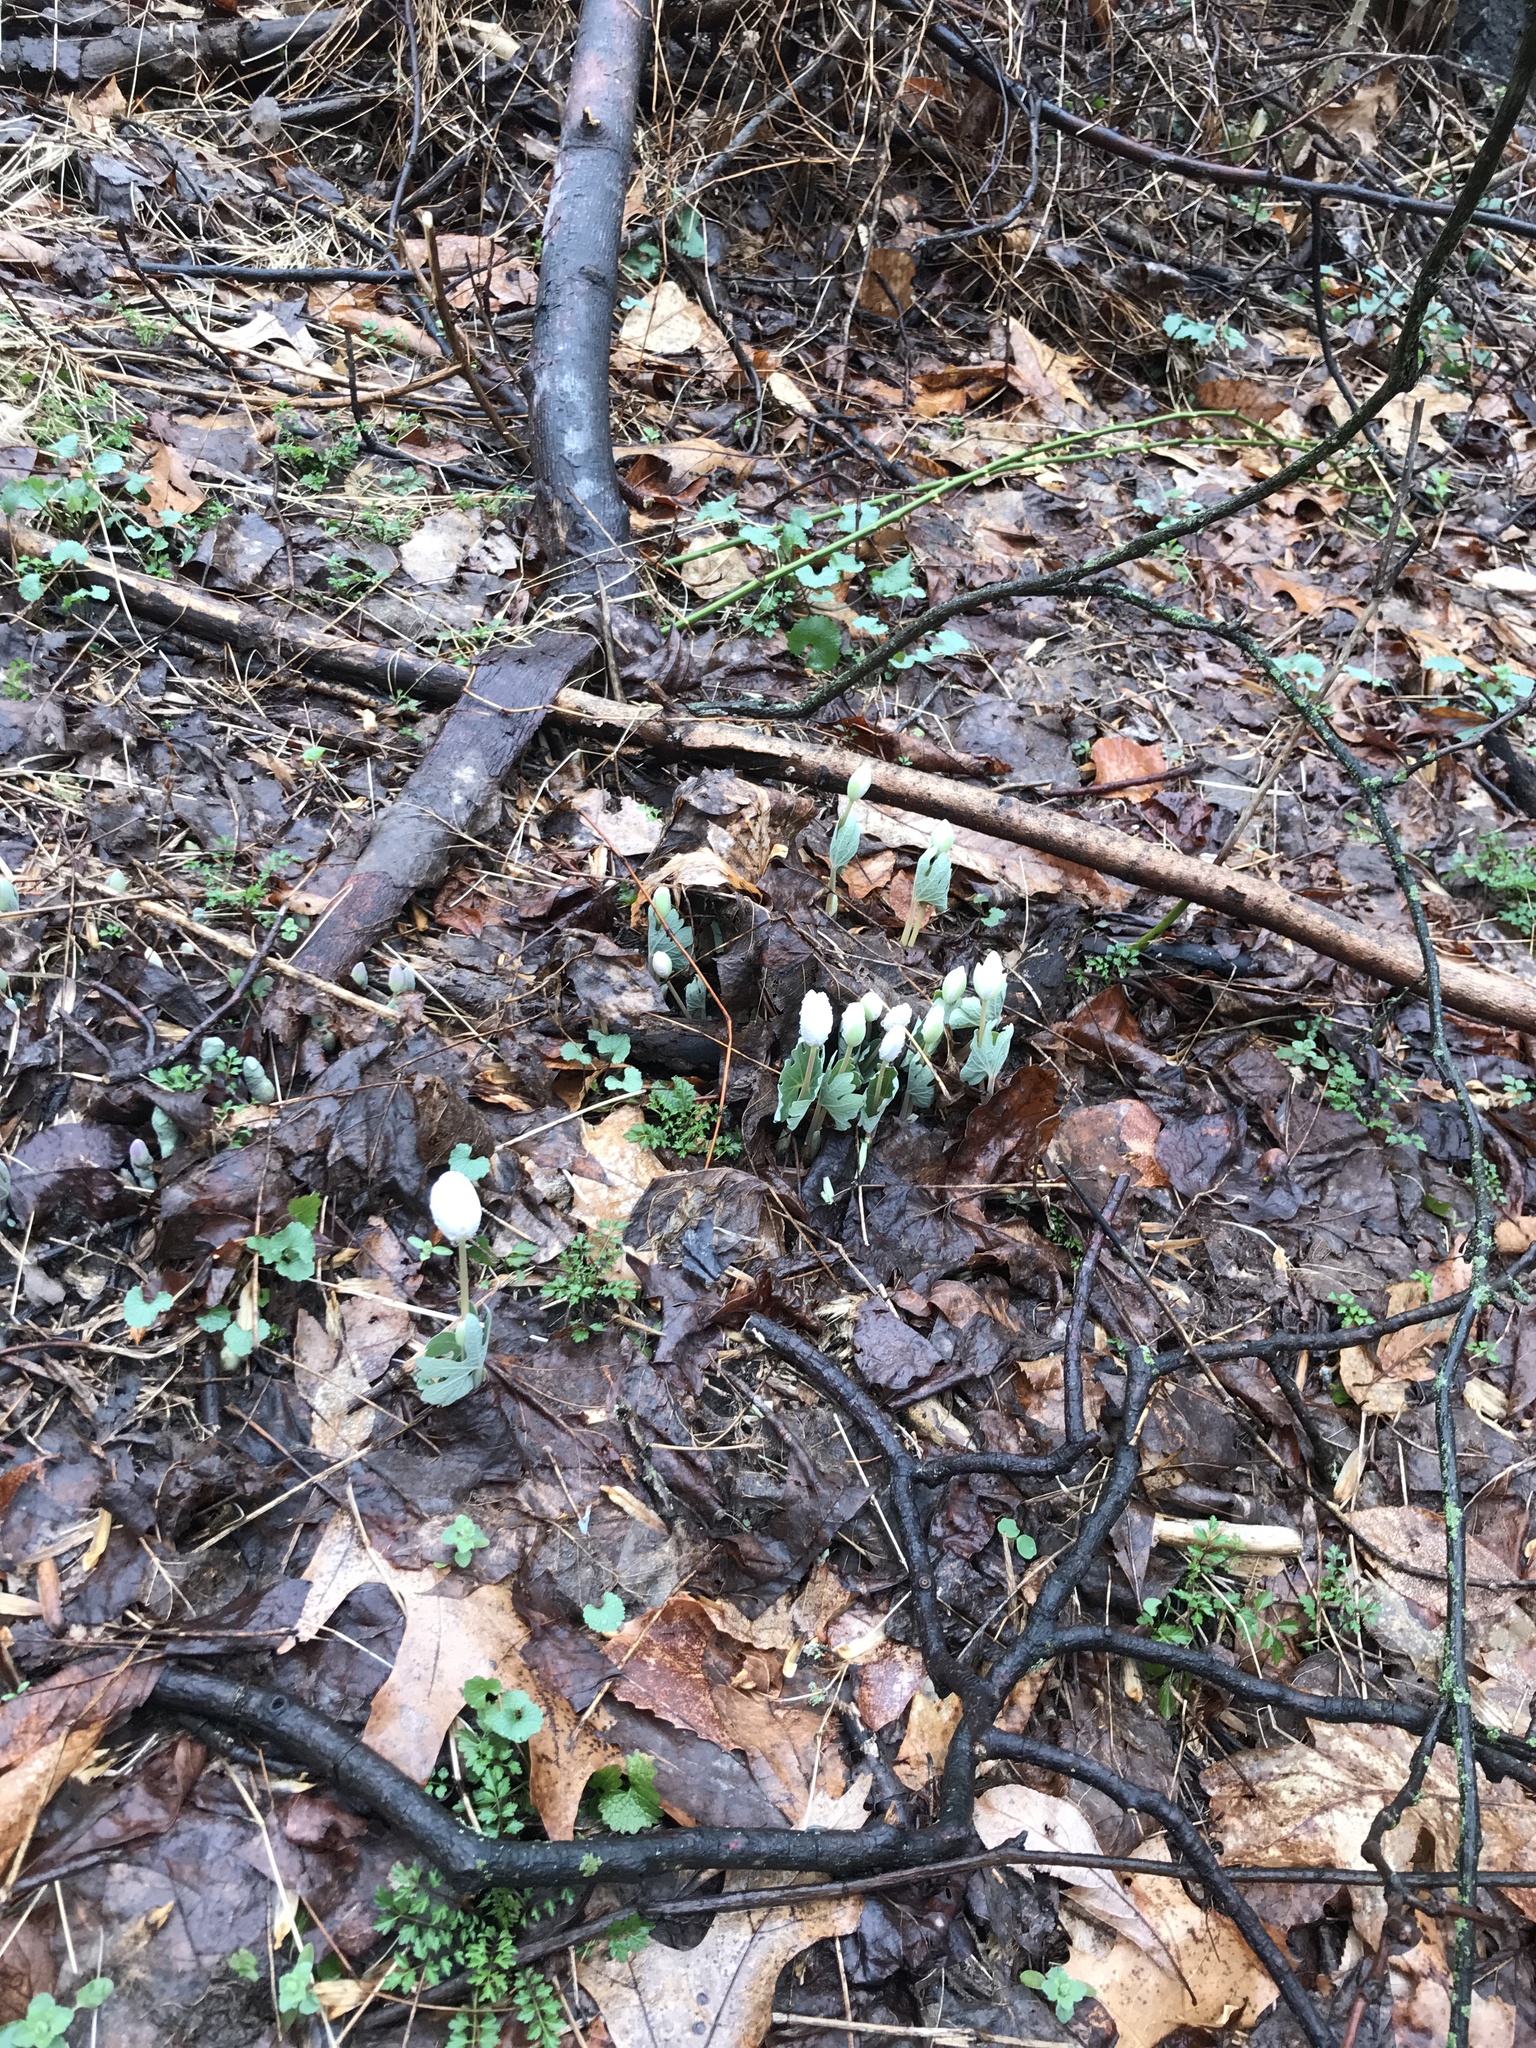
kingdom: Plantae
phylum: Tracheophyta
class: Magnoliopsida
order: Ranunculales
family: Papaveraceae
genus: Sanguinaria
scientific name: Sanguinaria canadensis
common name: Bloodroot
